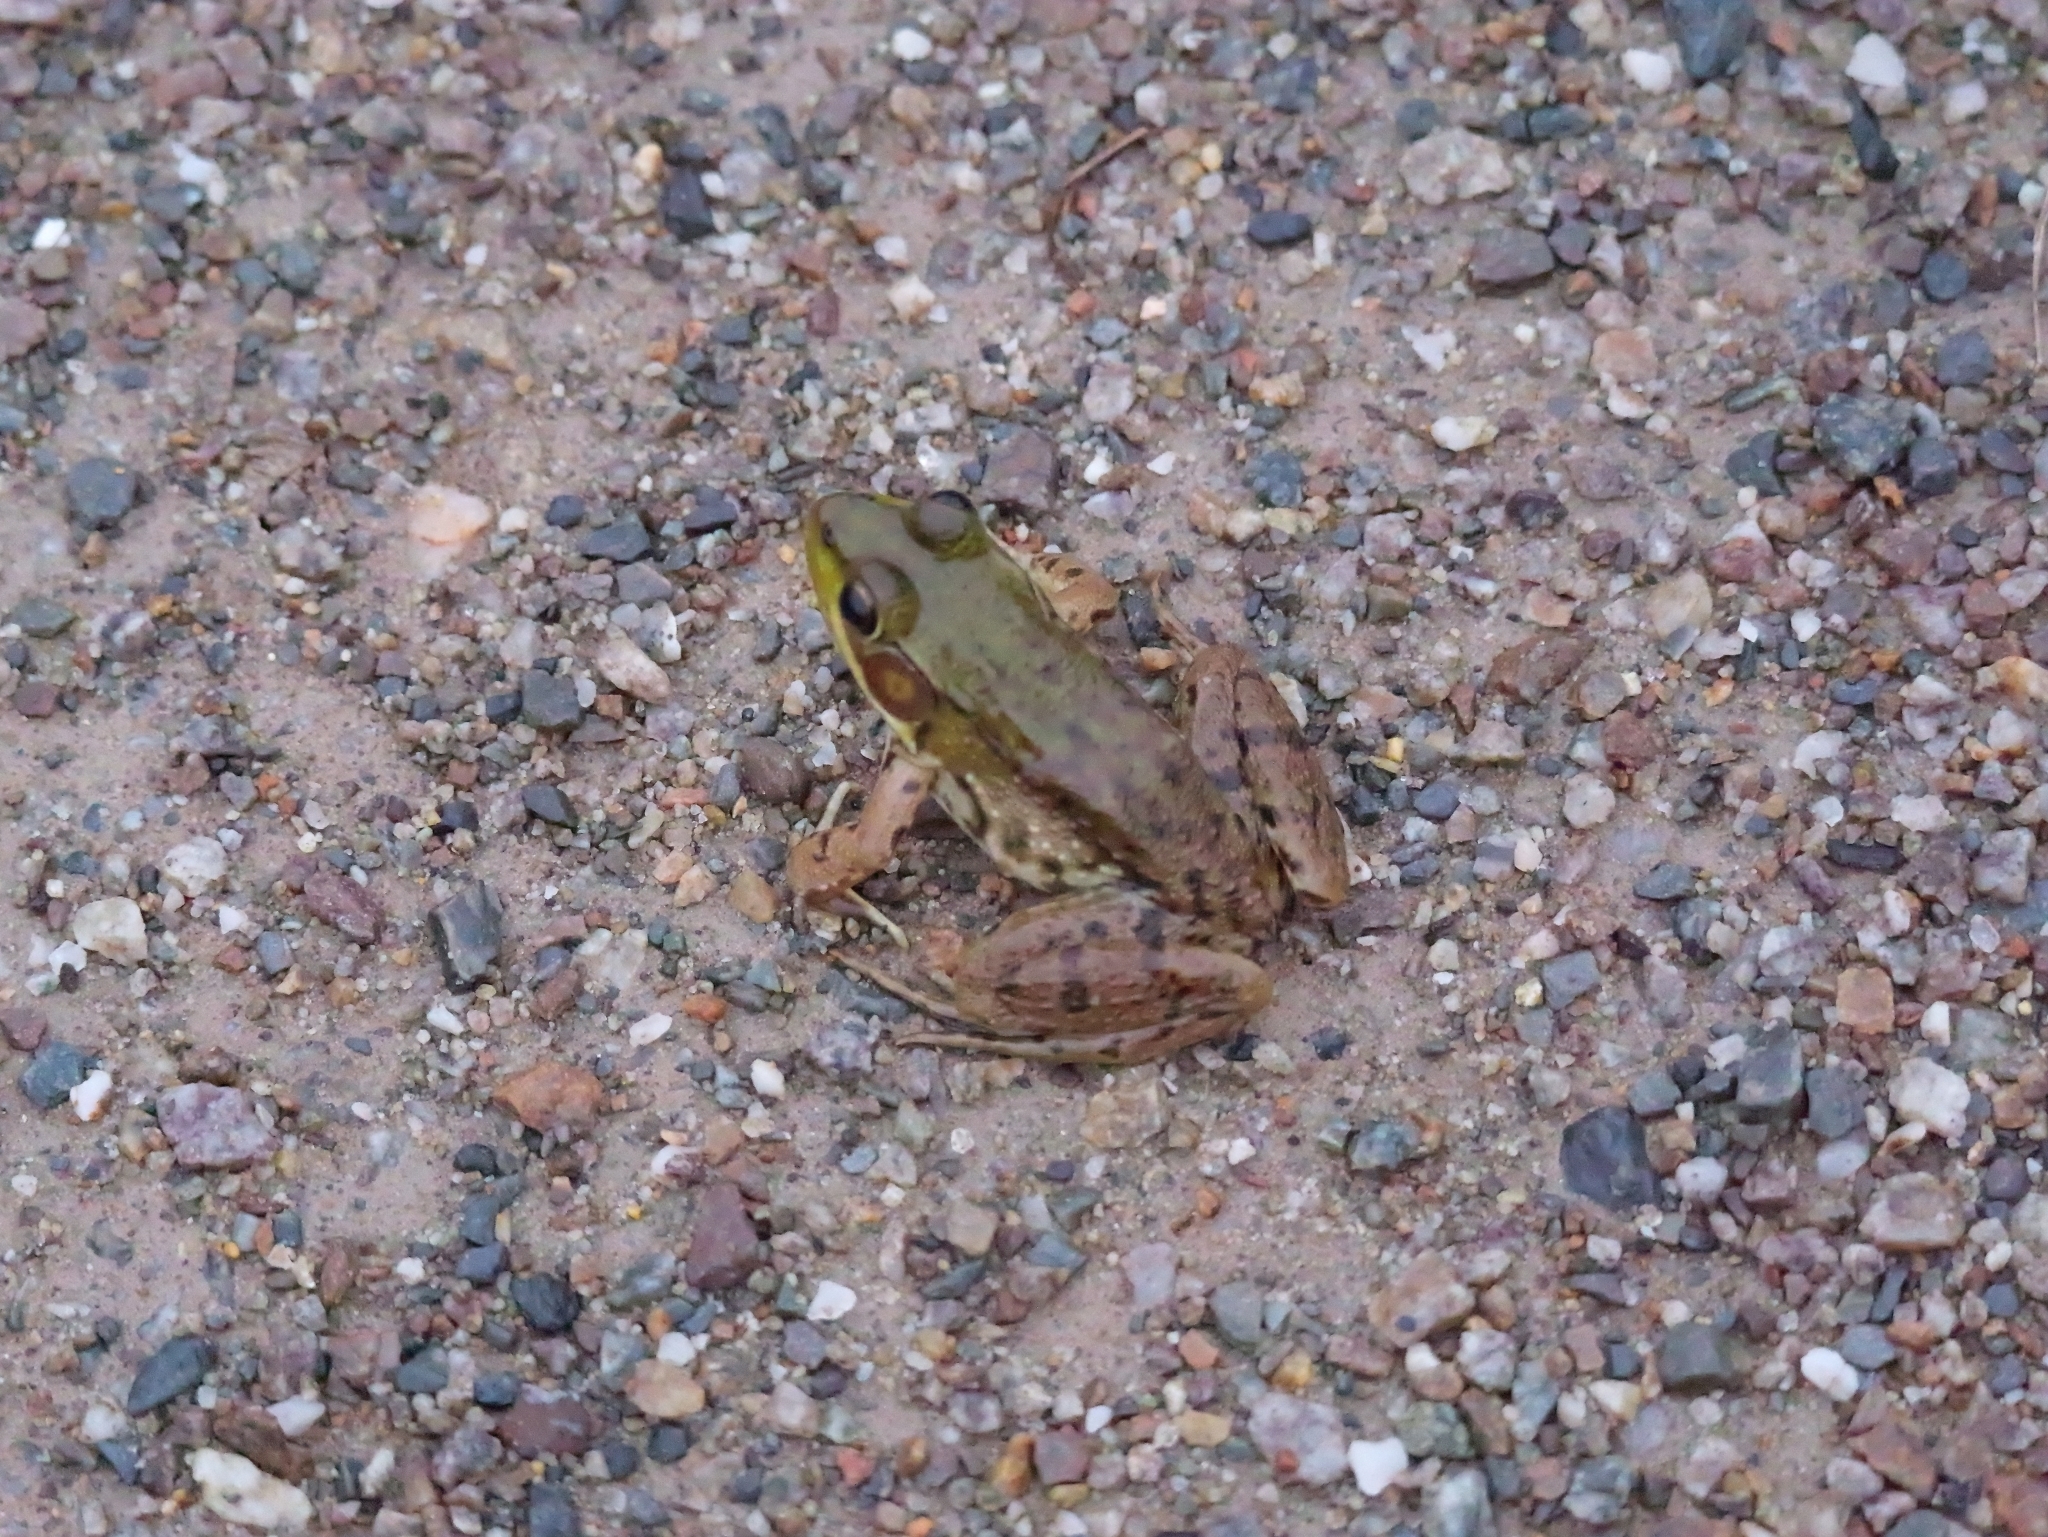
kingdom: Animalia
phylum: Chordata
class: Amphibia
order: Anura
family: Ranidae
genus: Lithobates
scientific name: Lithobates clamitans
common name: Green frog
